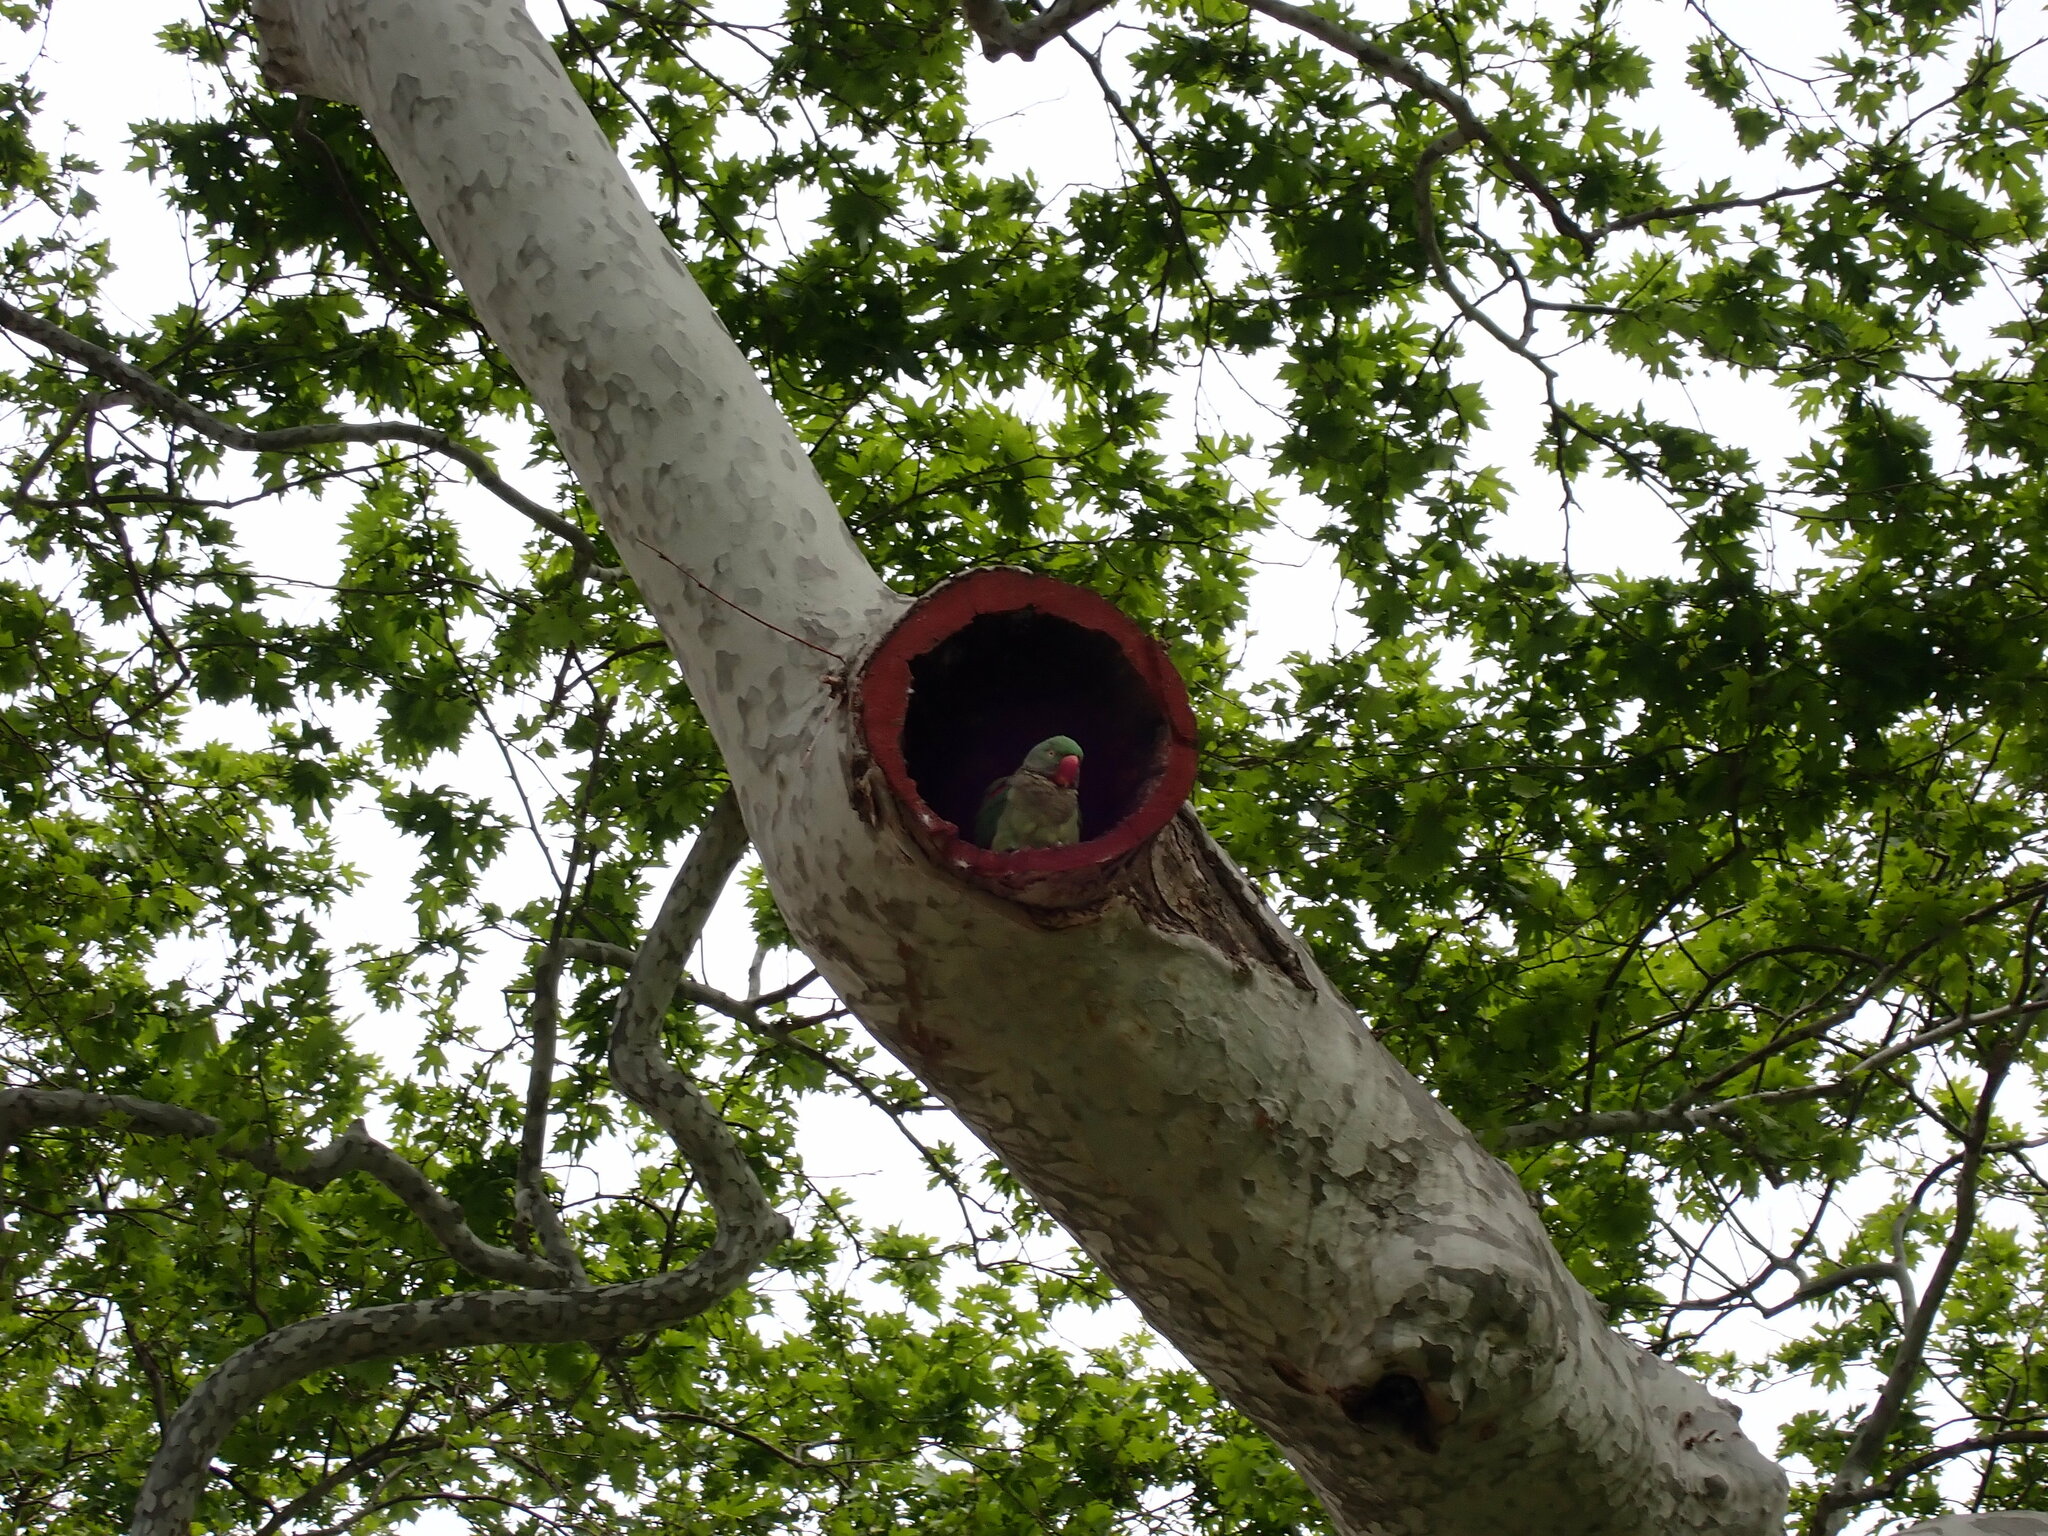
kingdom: Animalia
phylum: Chordata
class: Aves
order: Psittaciformes
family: Psittacidae
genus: Psittacula
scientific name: Psittacula eupatria
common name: Alexandrine parakeet
